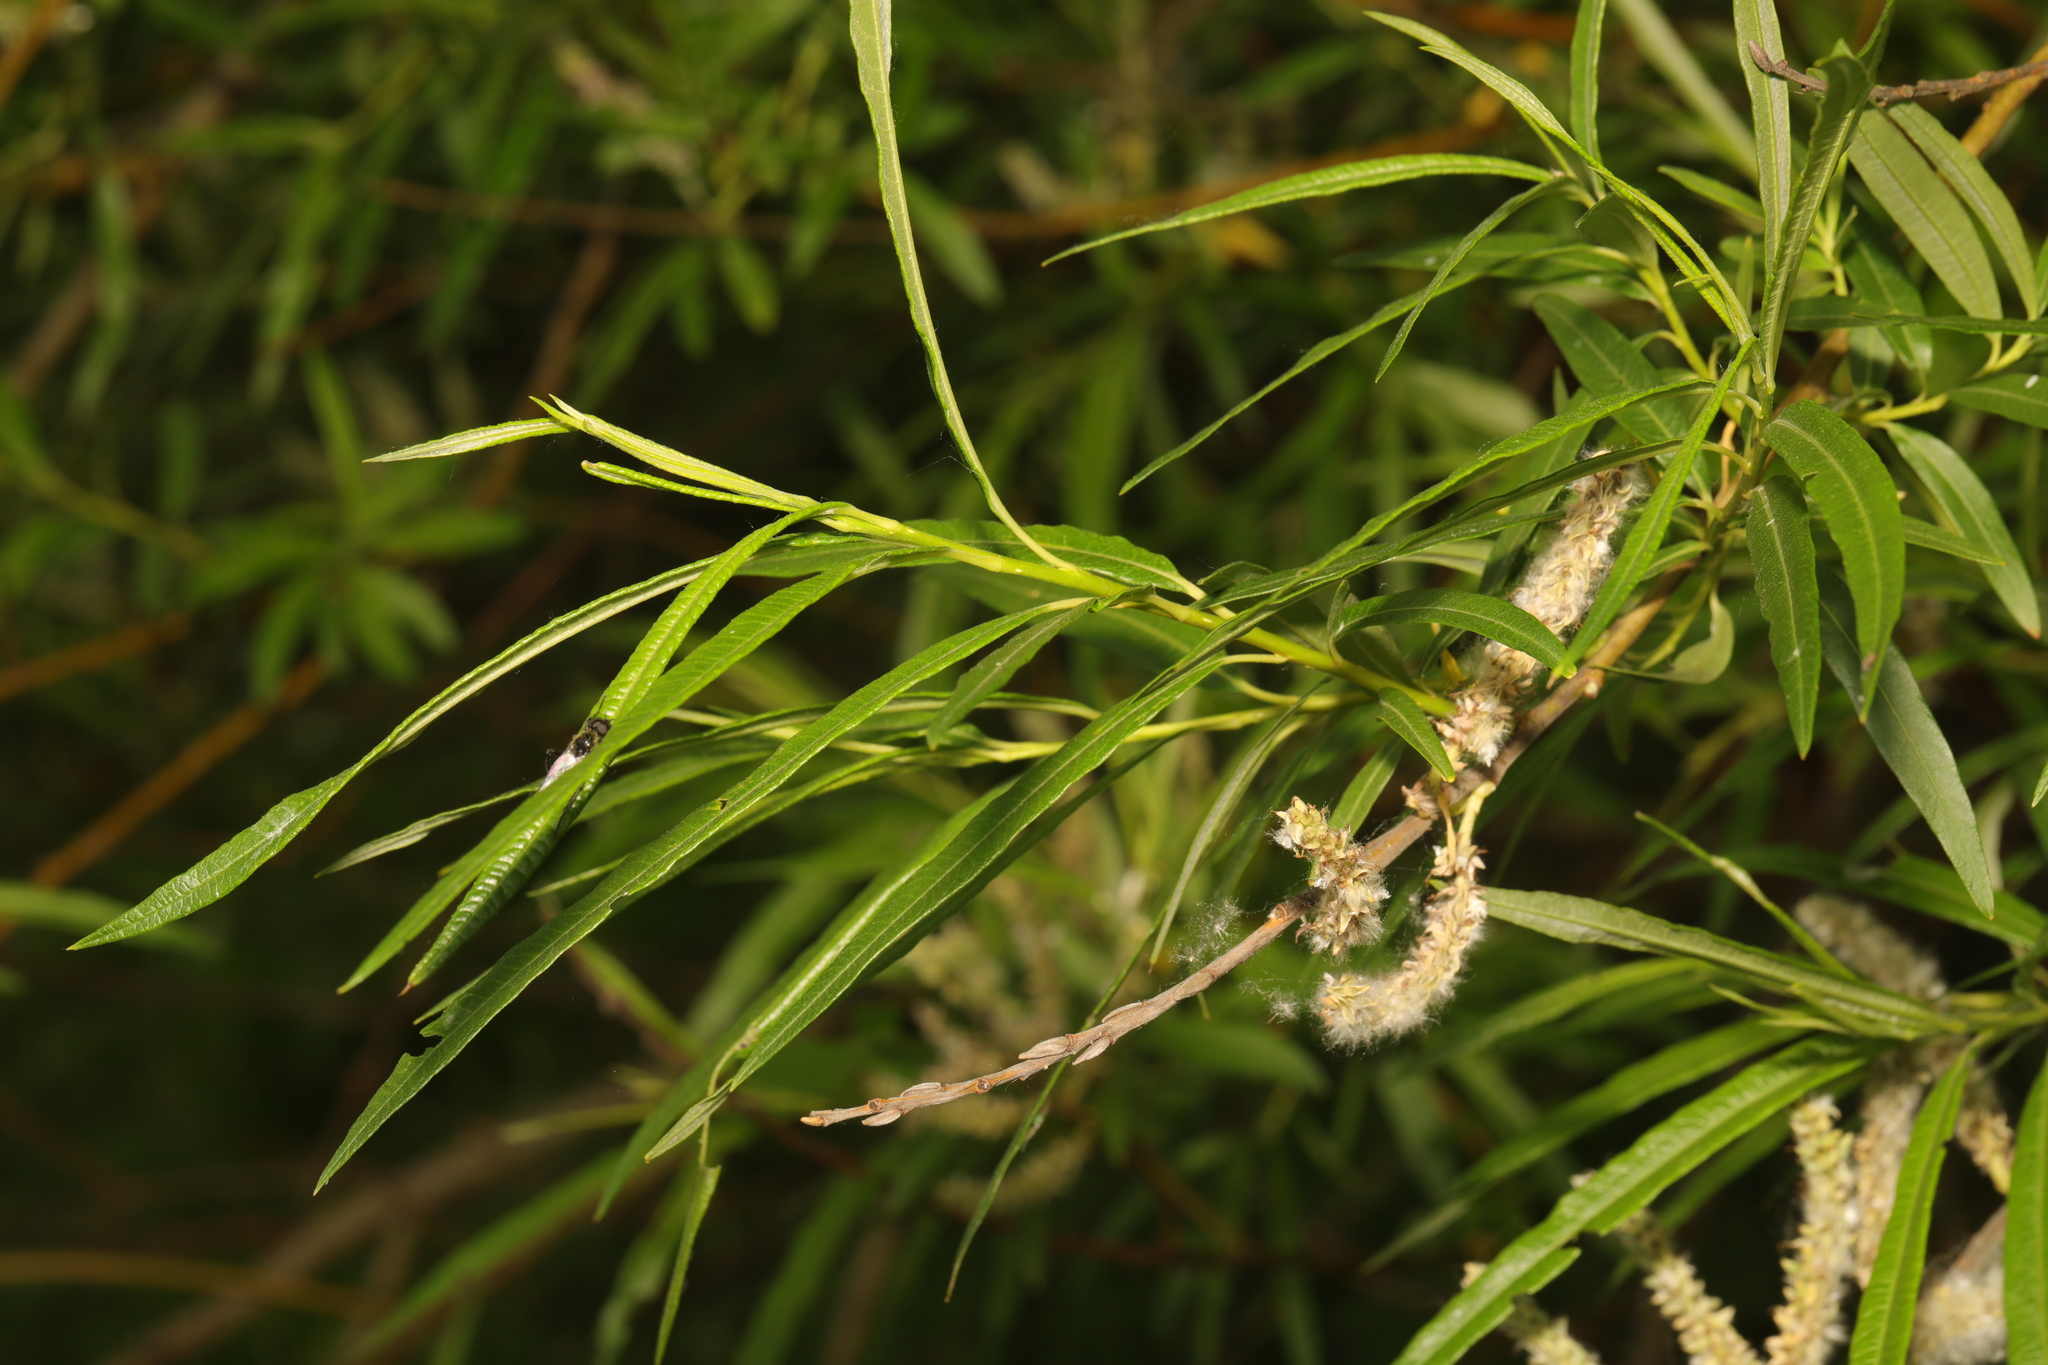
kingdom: Plantae
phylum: Tracheophyta
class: Magnoliopsida
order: Malpighiales
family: Salicaceae
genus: Salix
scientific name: Salix viminalis
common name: Osier
